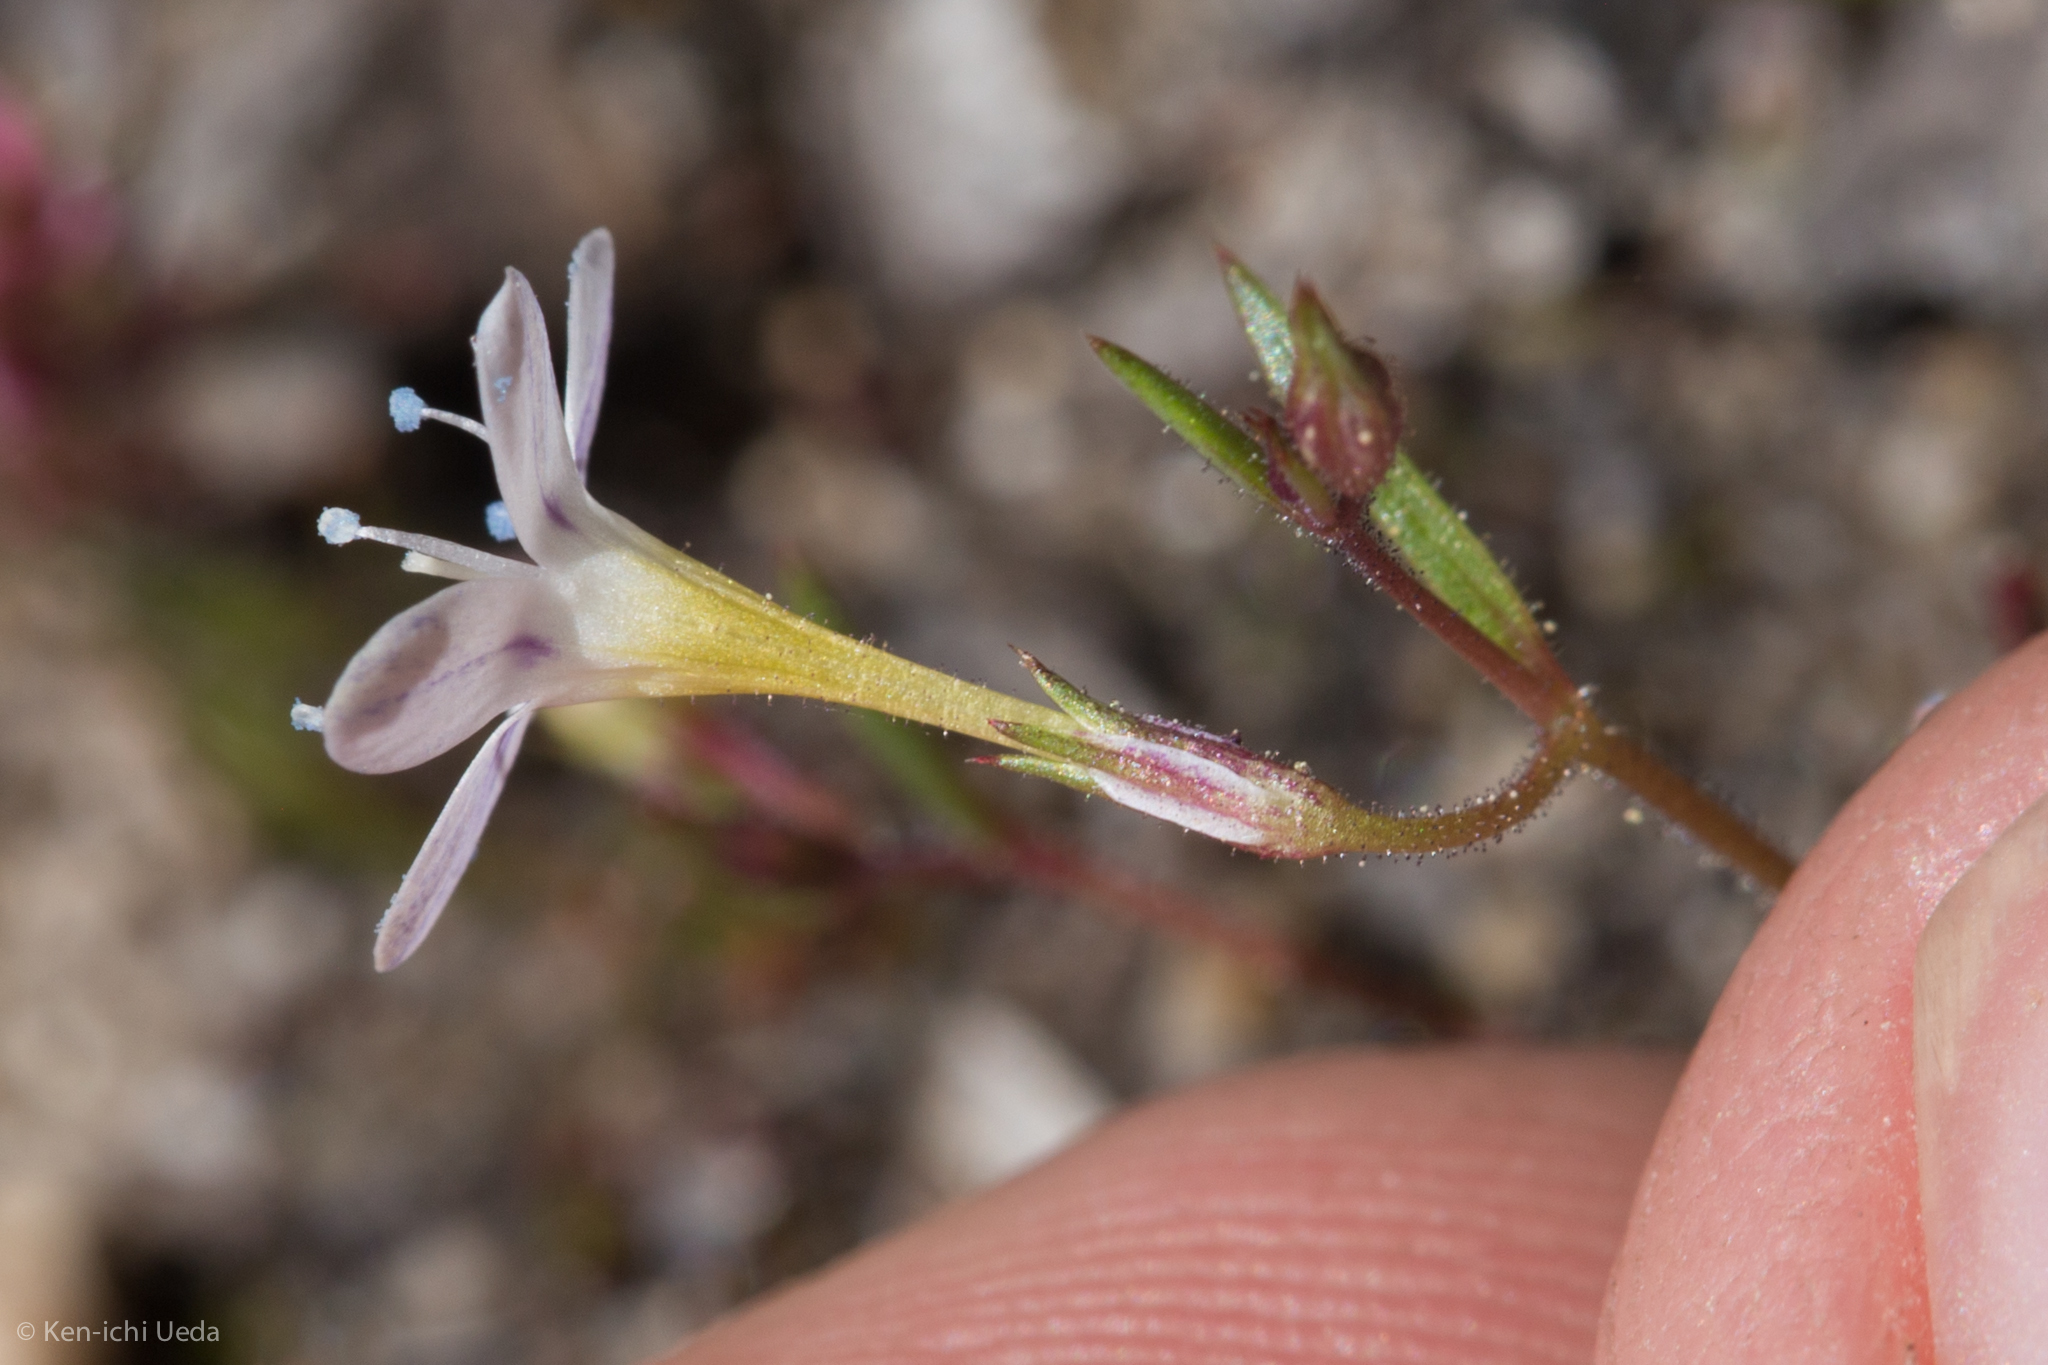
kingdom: Plantae
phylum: Tracheophyta
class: Magnoliopsida
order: Ericales
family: Polemoniaceae
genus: Navarretia
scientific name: Navarretia leptalea
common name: Bridges' pincushionplant
